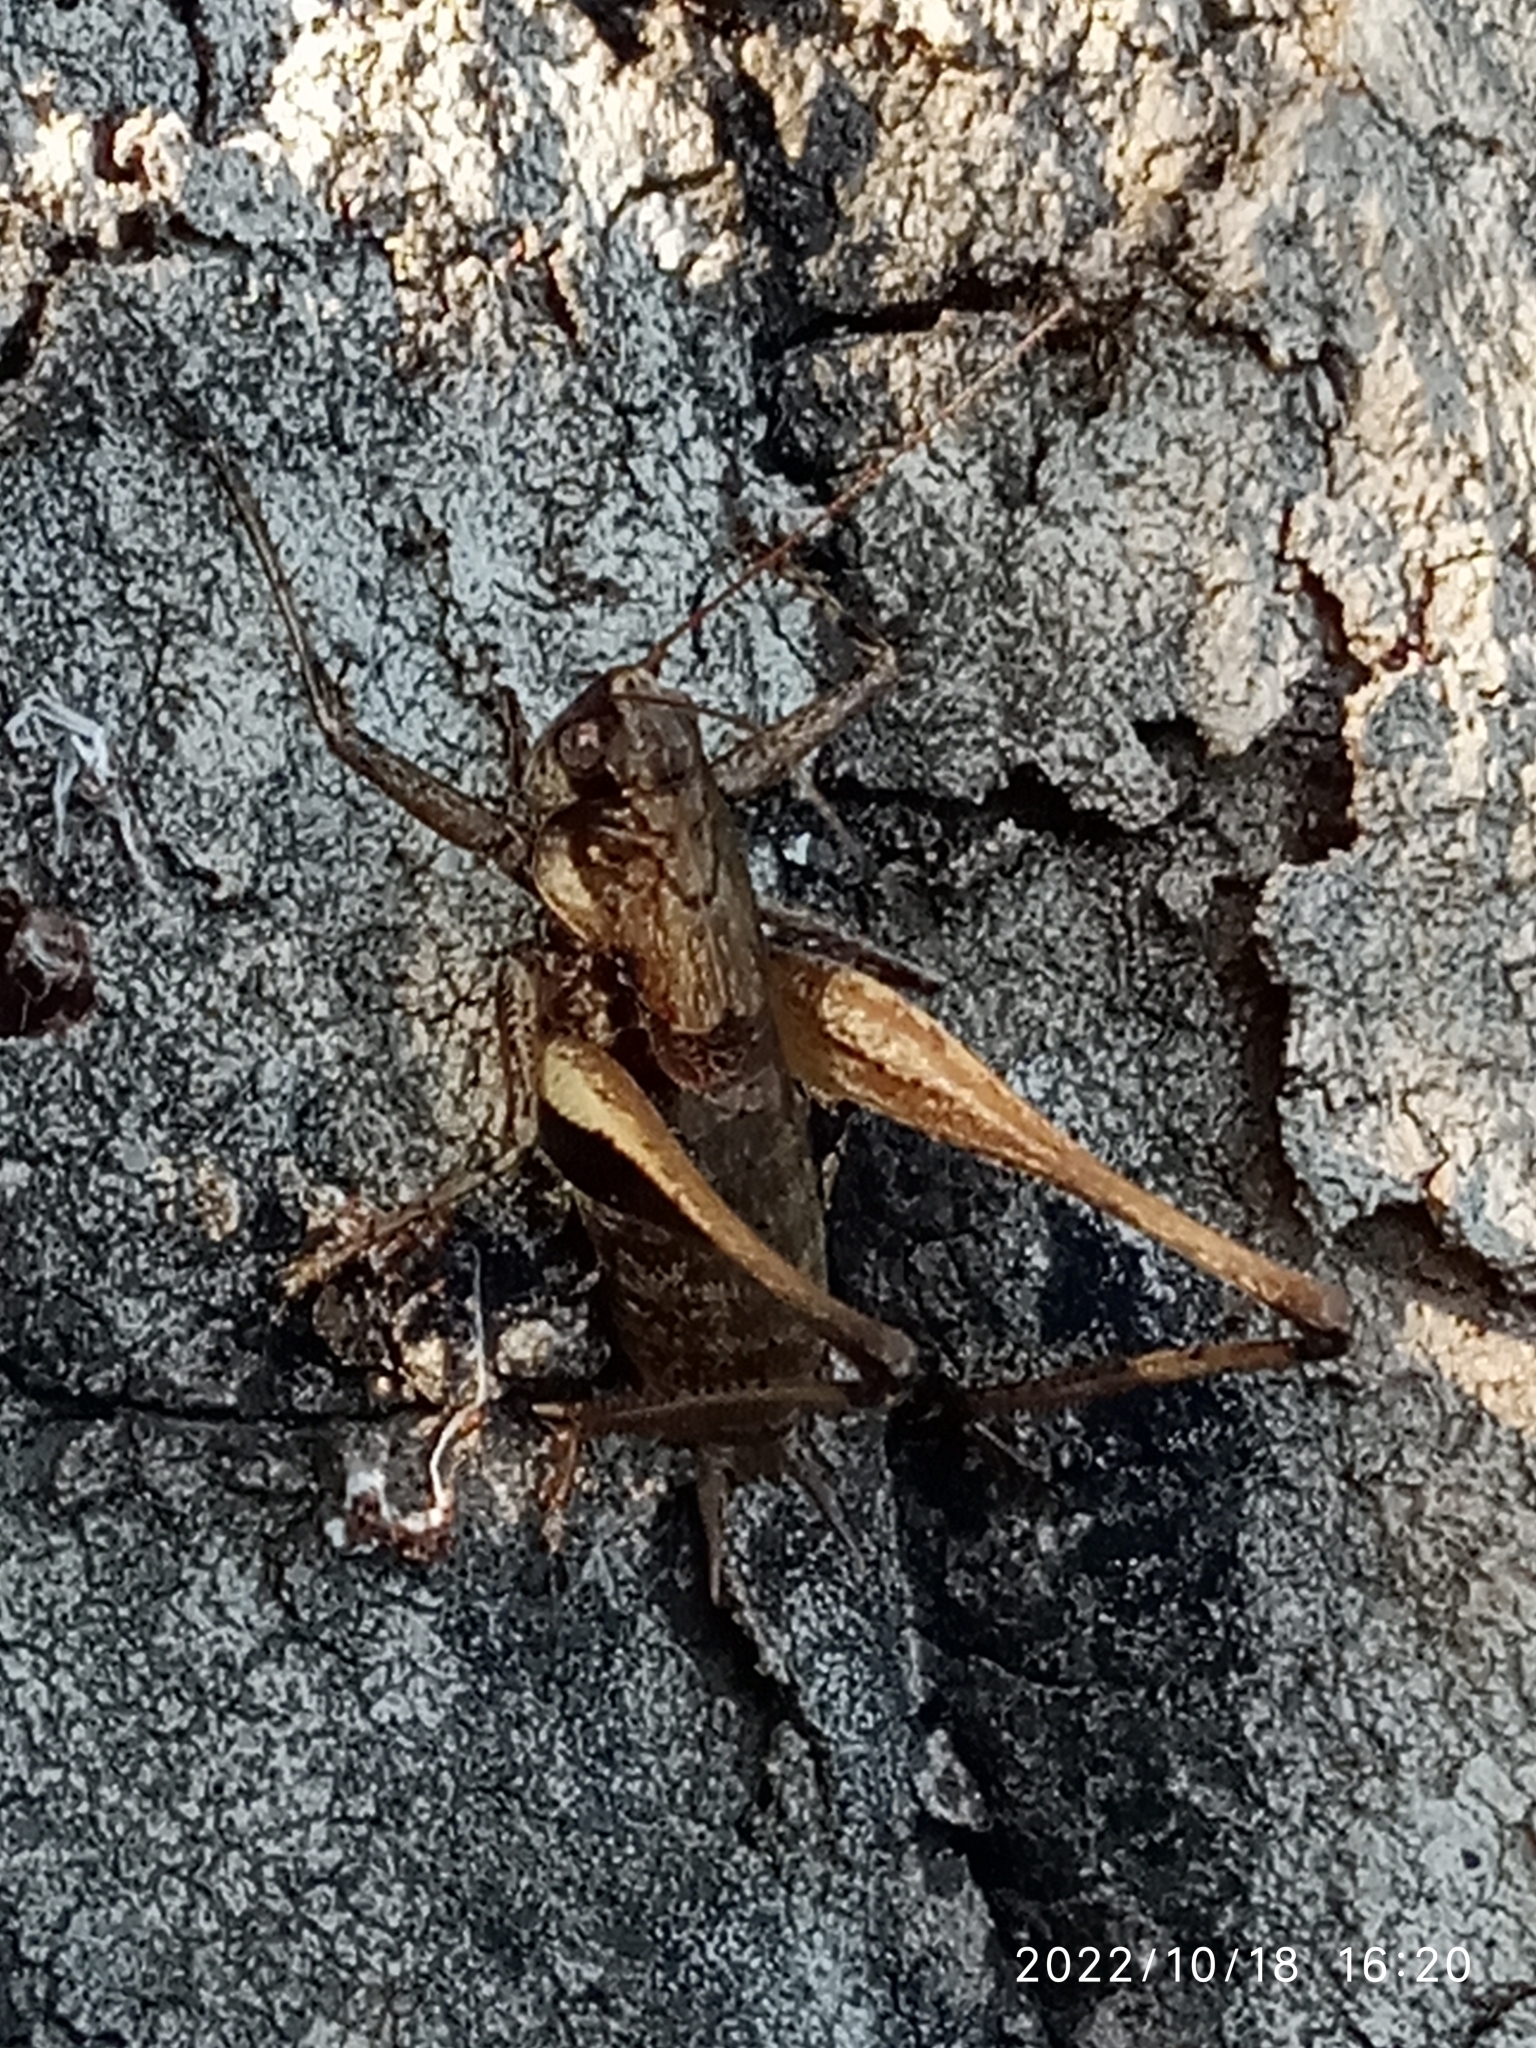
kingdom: Animalia
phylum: Arthropoda
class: Insecta
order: Orthoptera
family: Tettigoniidae
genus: Rhacocleis
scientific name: Rhacocleis poneli
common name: Ponel's bush-cricket
